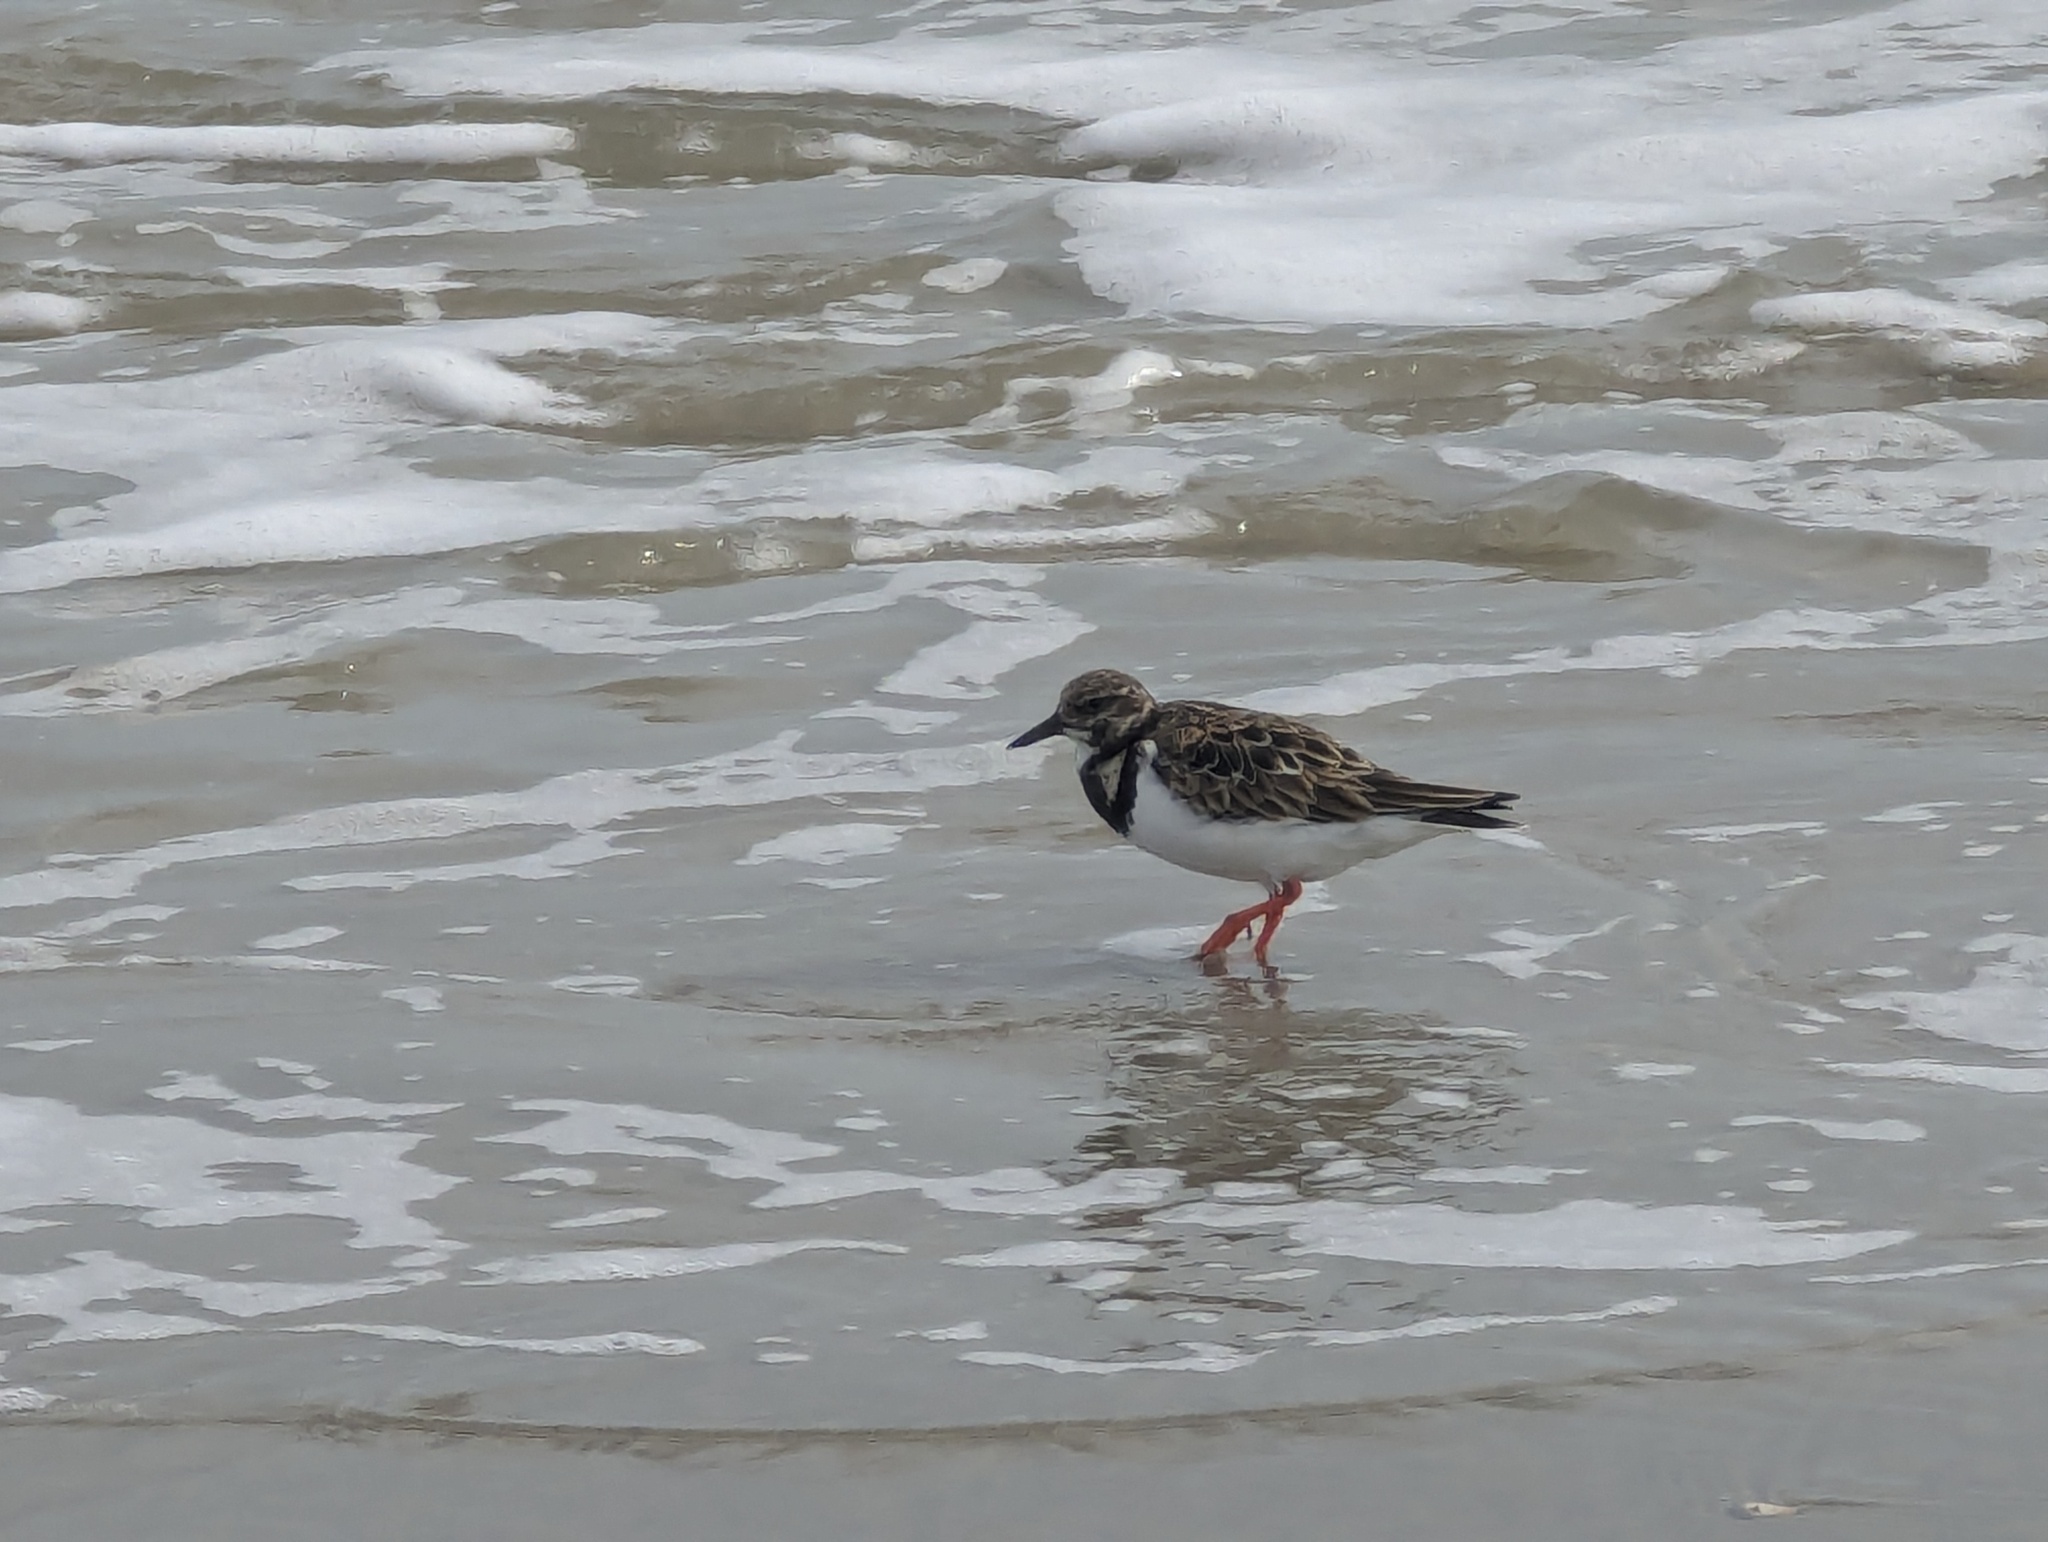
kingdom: Animalia
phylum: Chordata
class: Aves
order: Charadriiformes
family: Scolopacidae
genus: Arenaria
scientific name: Arenaria interpres
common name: Ruddy turnstone
